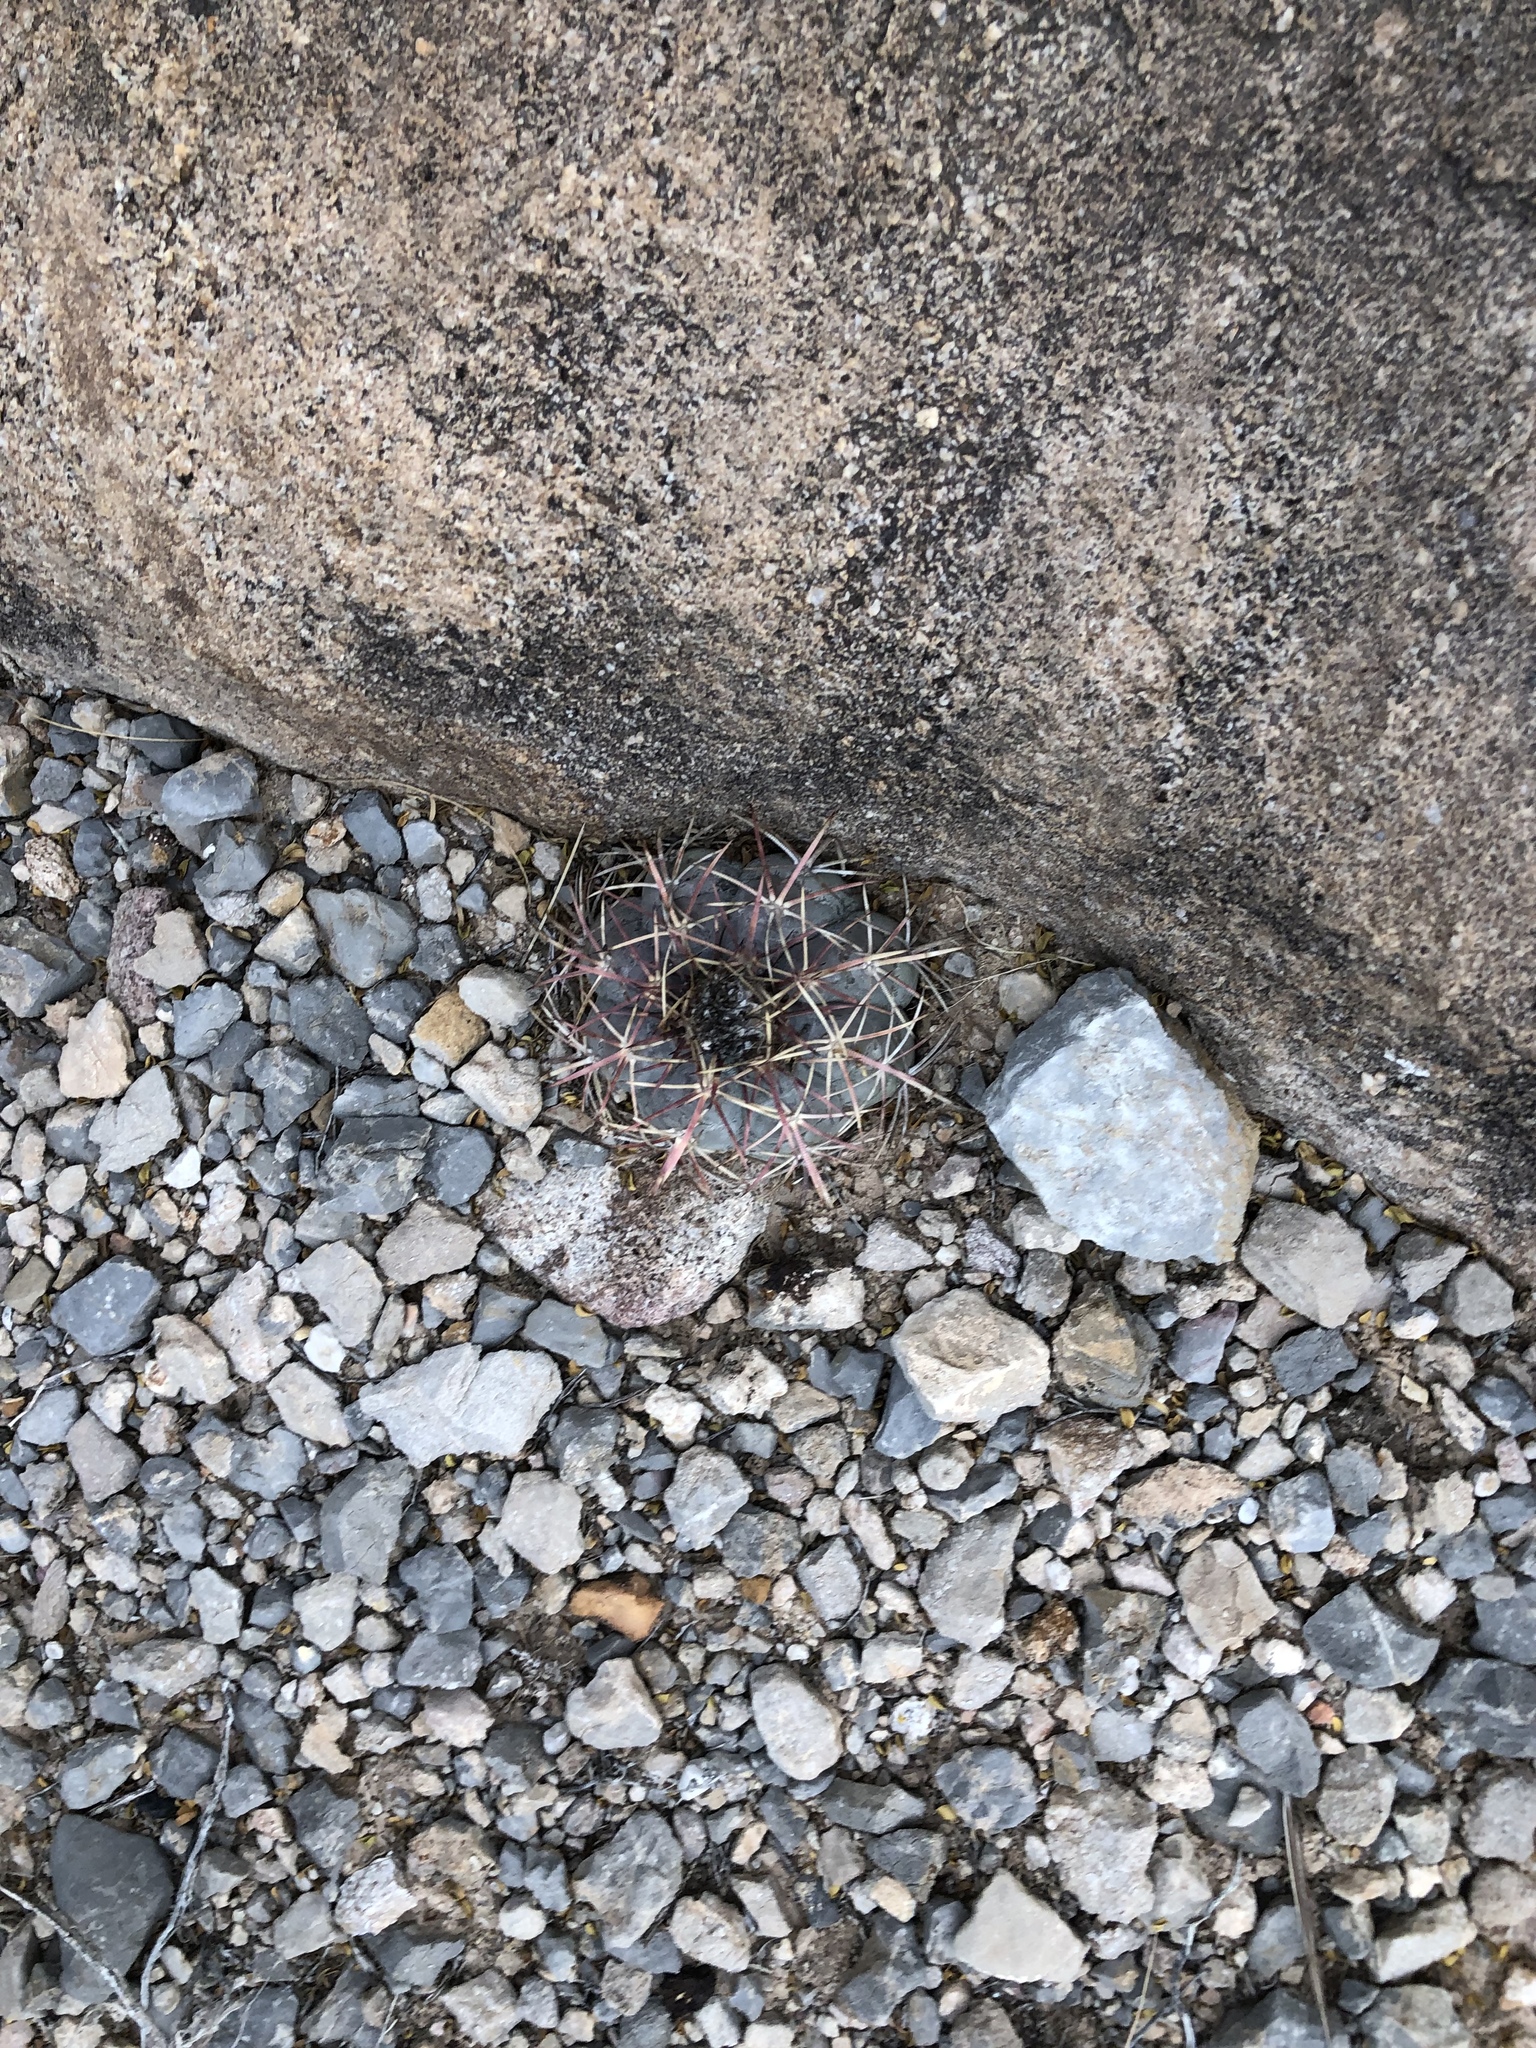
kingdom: Plantae
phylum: Tracheophyta
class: Magnoliopsida
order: Caryophyllales
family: Cactaceae
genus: Echinocactus
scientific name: Echinocactus horizonthalonius
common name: Devilshead
